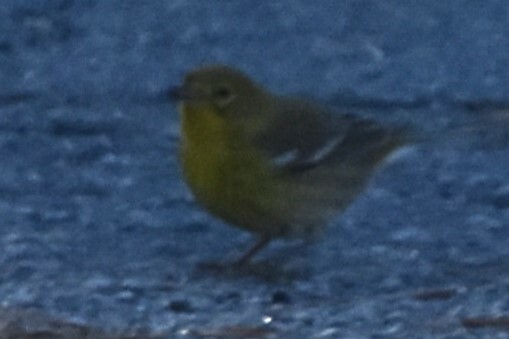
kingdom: Animalia
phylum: Chordata
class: Aves
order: Passeriformes
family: Parulidae
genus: Setophaga
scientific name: Setophaga pinus
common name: Pine warbler
